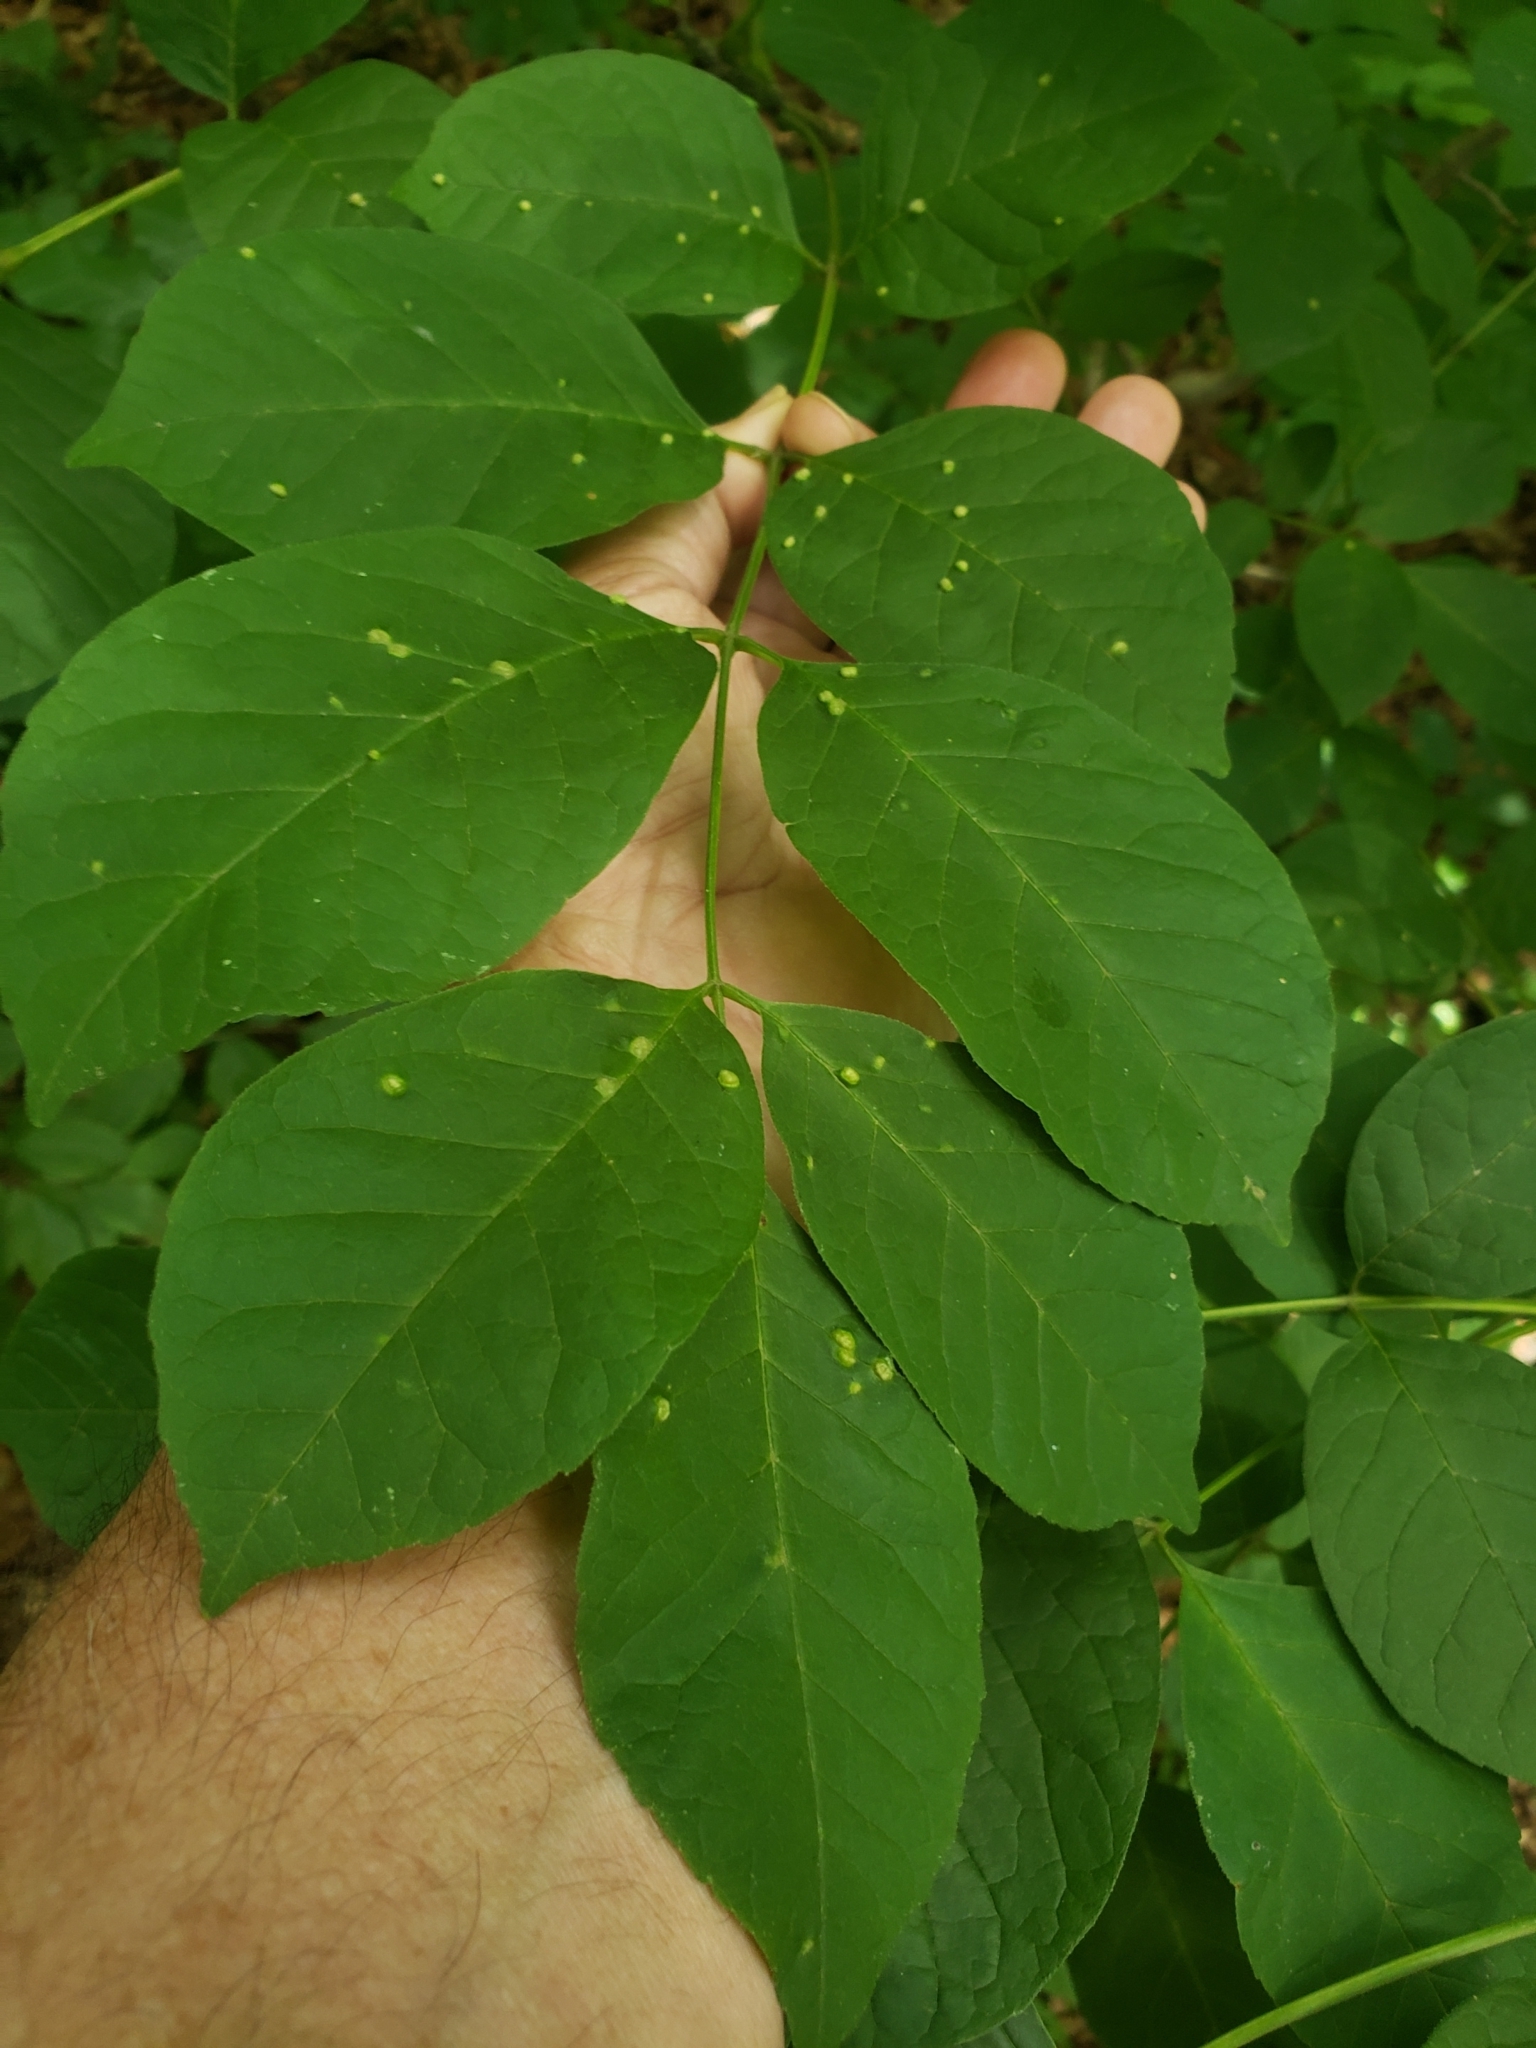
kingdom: Animalia
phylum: Arthropoda
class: Arachnida
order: Trombidiformes
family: Eriophyidae
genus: Aceria
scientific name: Aceria fraxinicola
